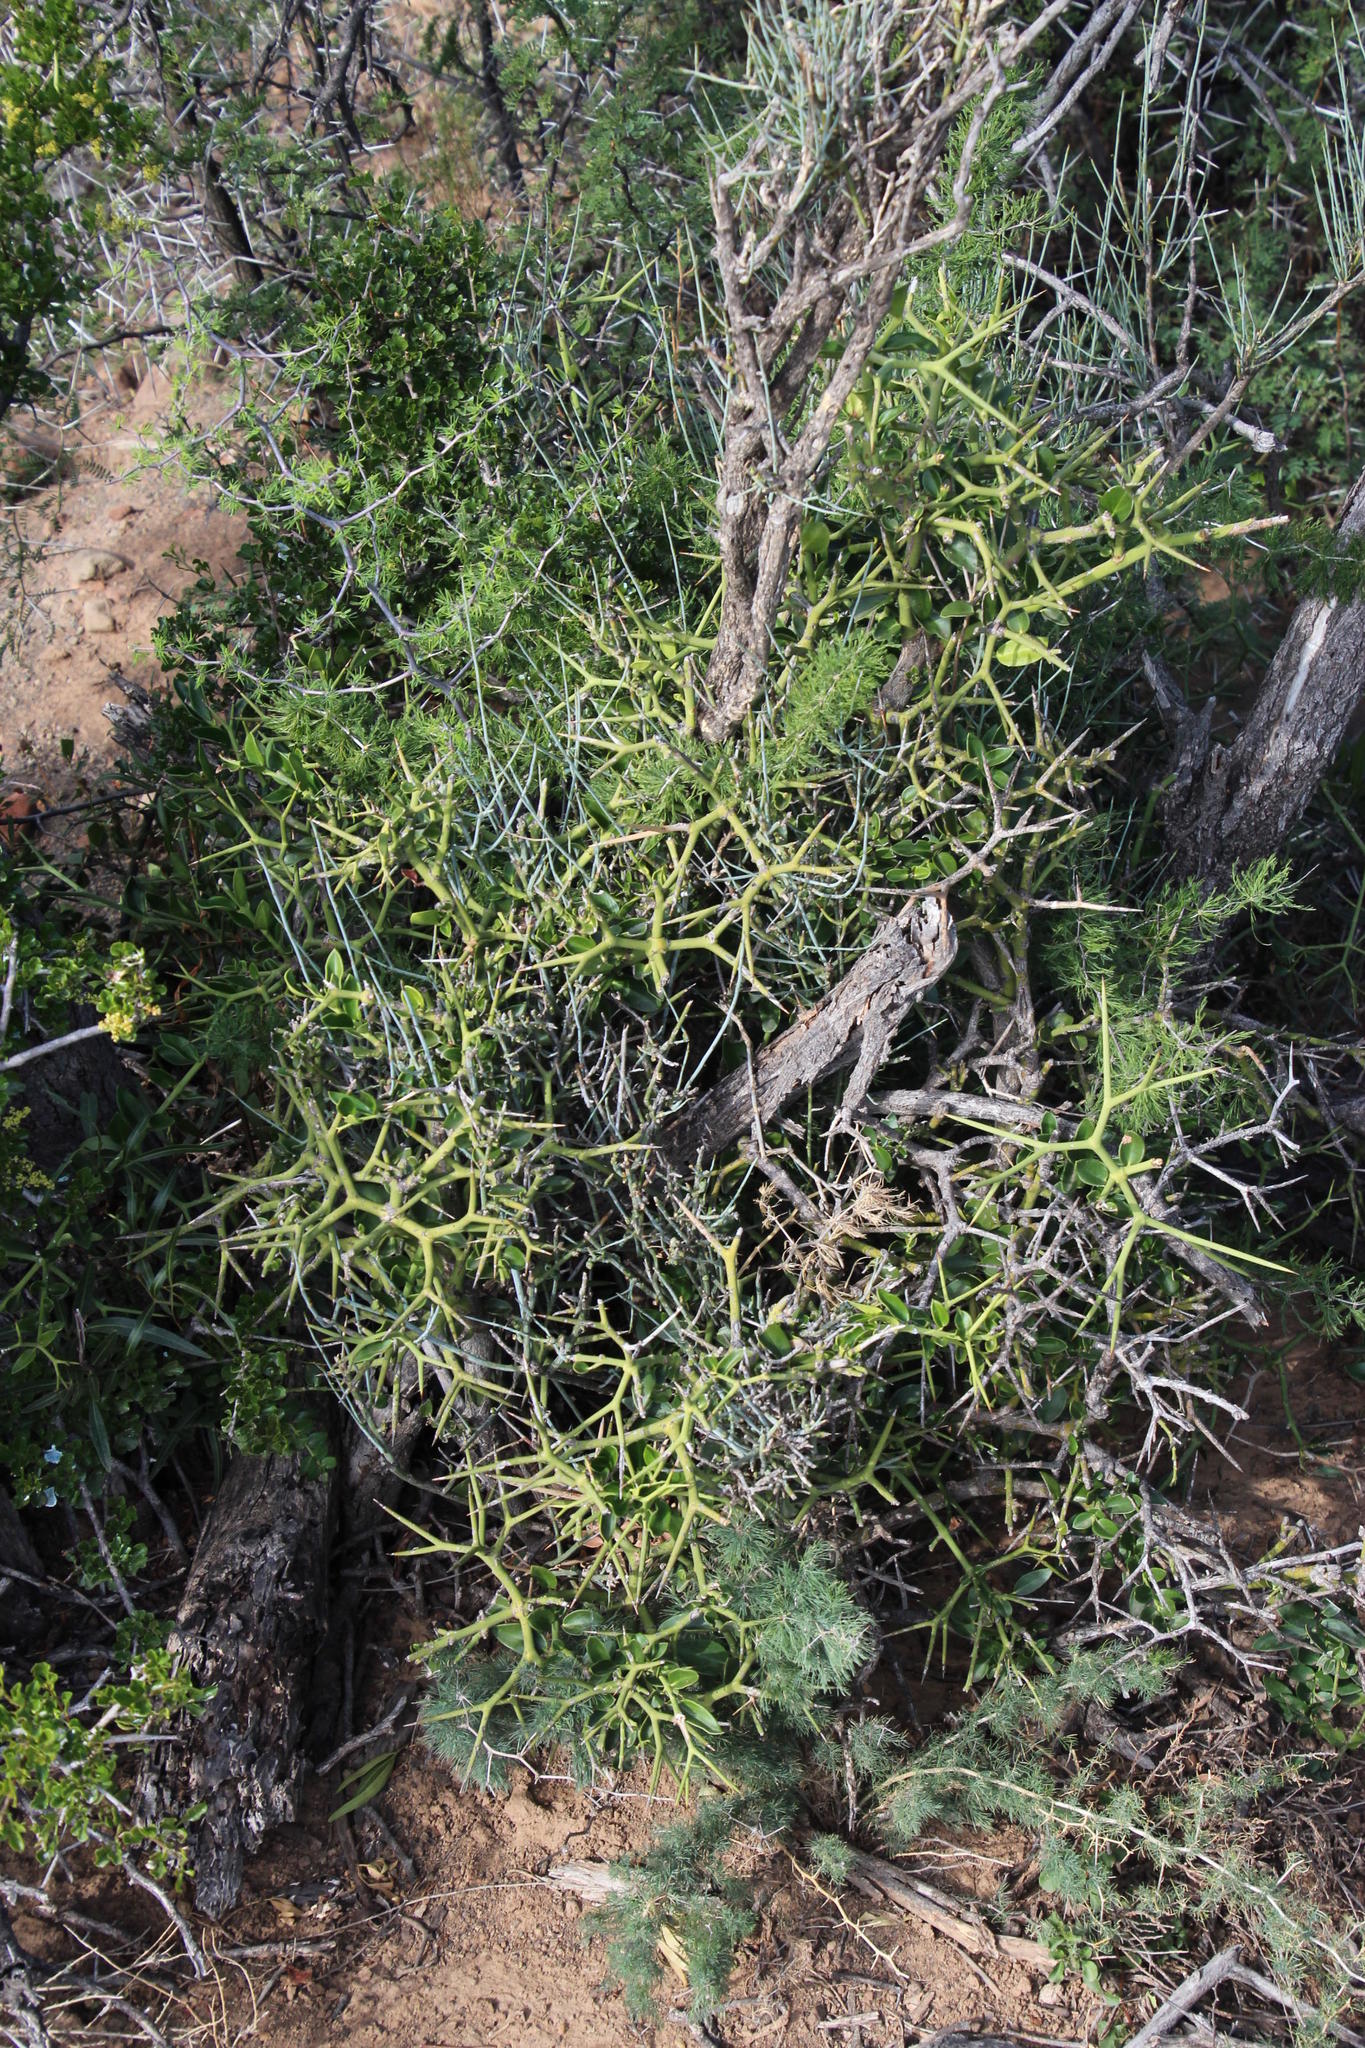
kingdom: Plantae
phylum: Tracheophyta
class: Magnoliopsida
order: Gentianales
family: Apocynaceae
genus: Carissa
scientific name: Carissa haematocarpa
